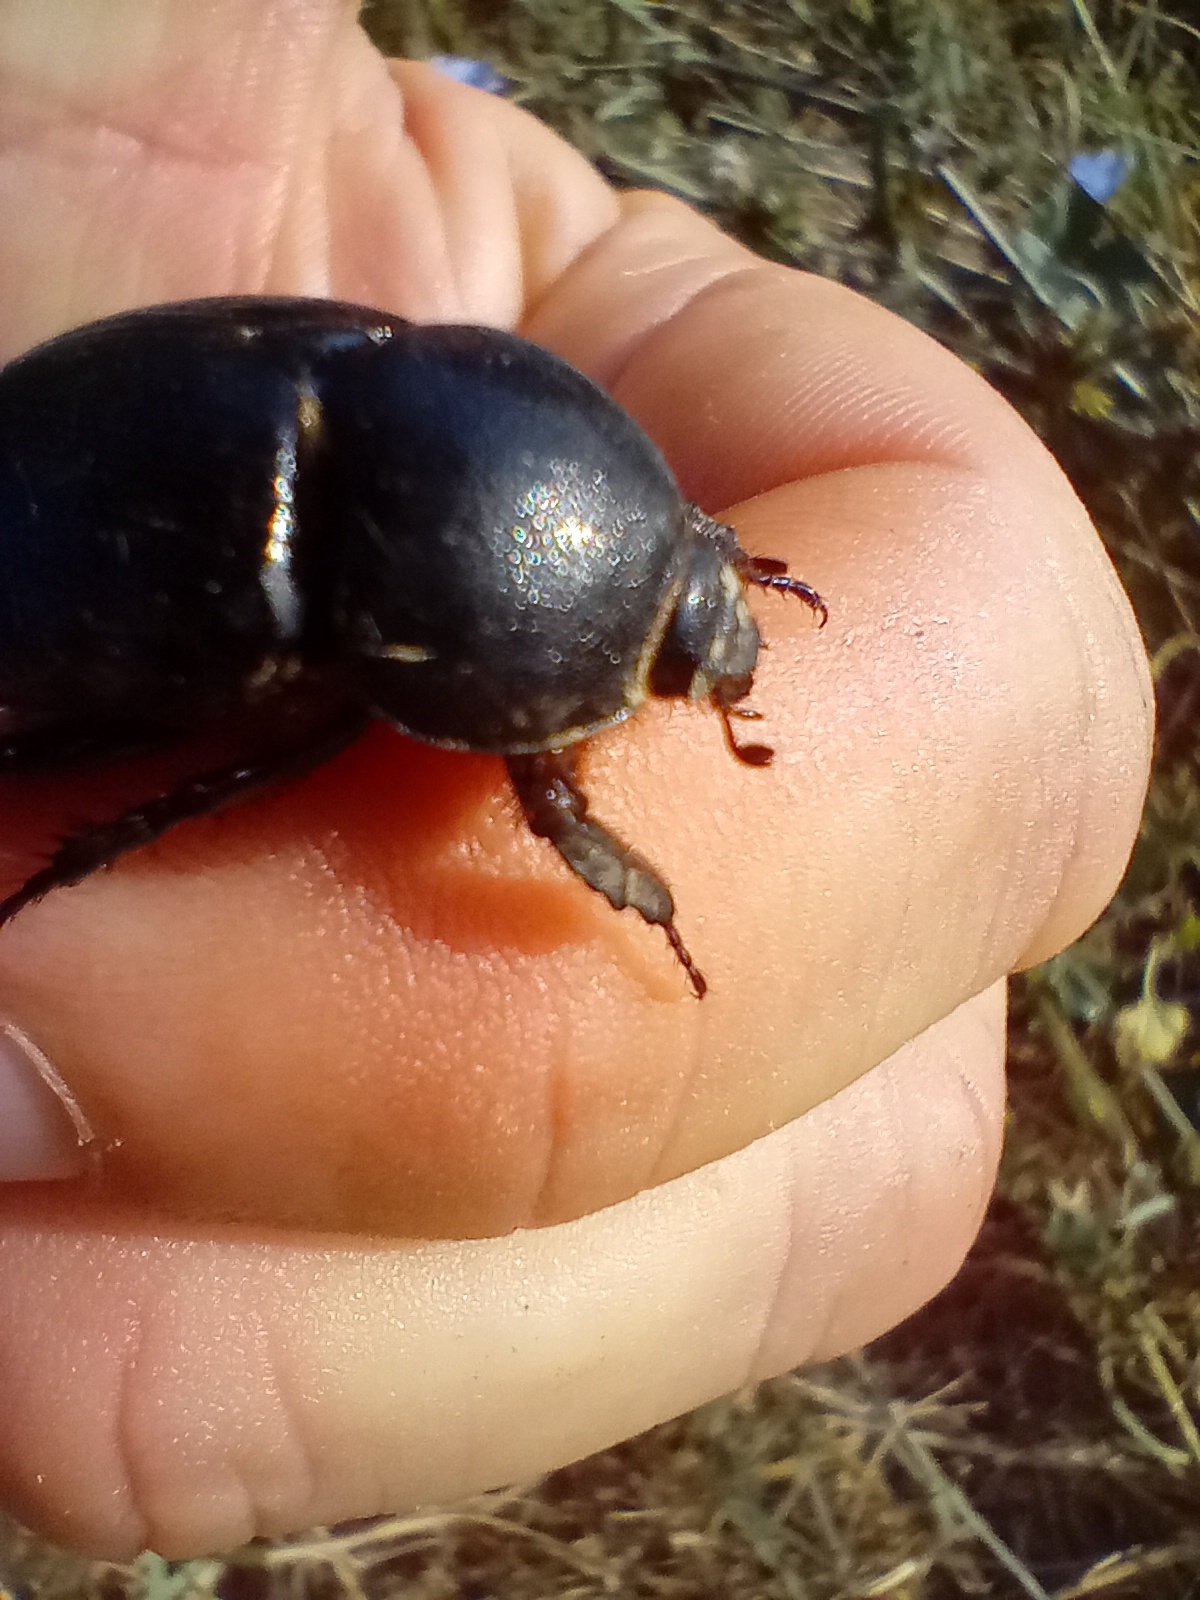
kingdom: Animalia
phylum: Arthropoda
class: Insecta
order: Coleoptera
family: Scarabaeidae
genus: Pentodon
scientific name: Pentodon bidens
